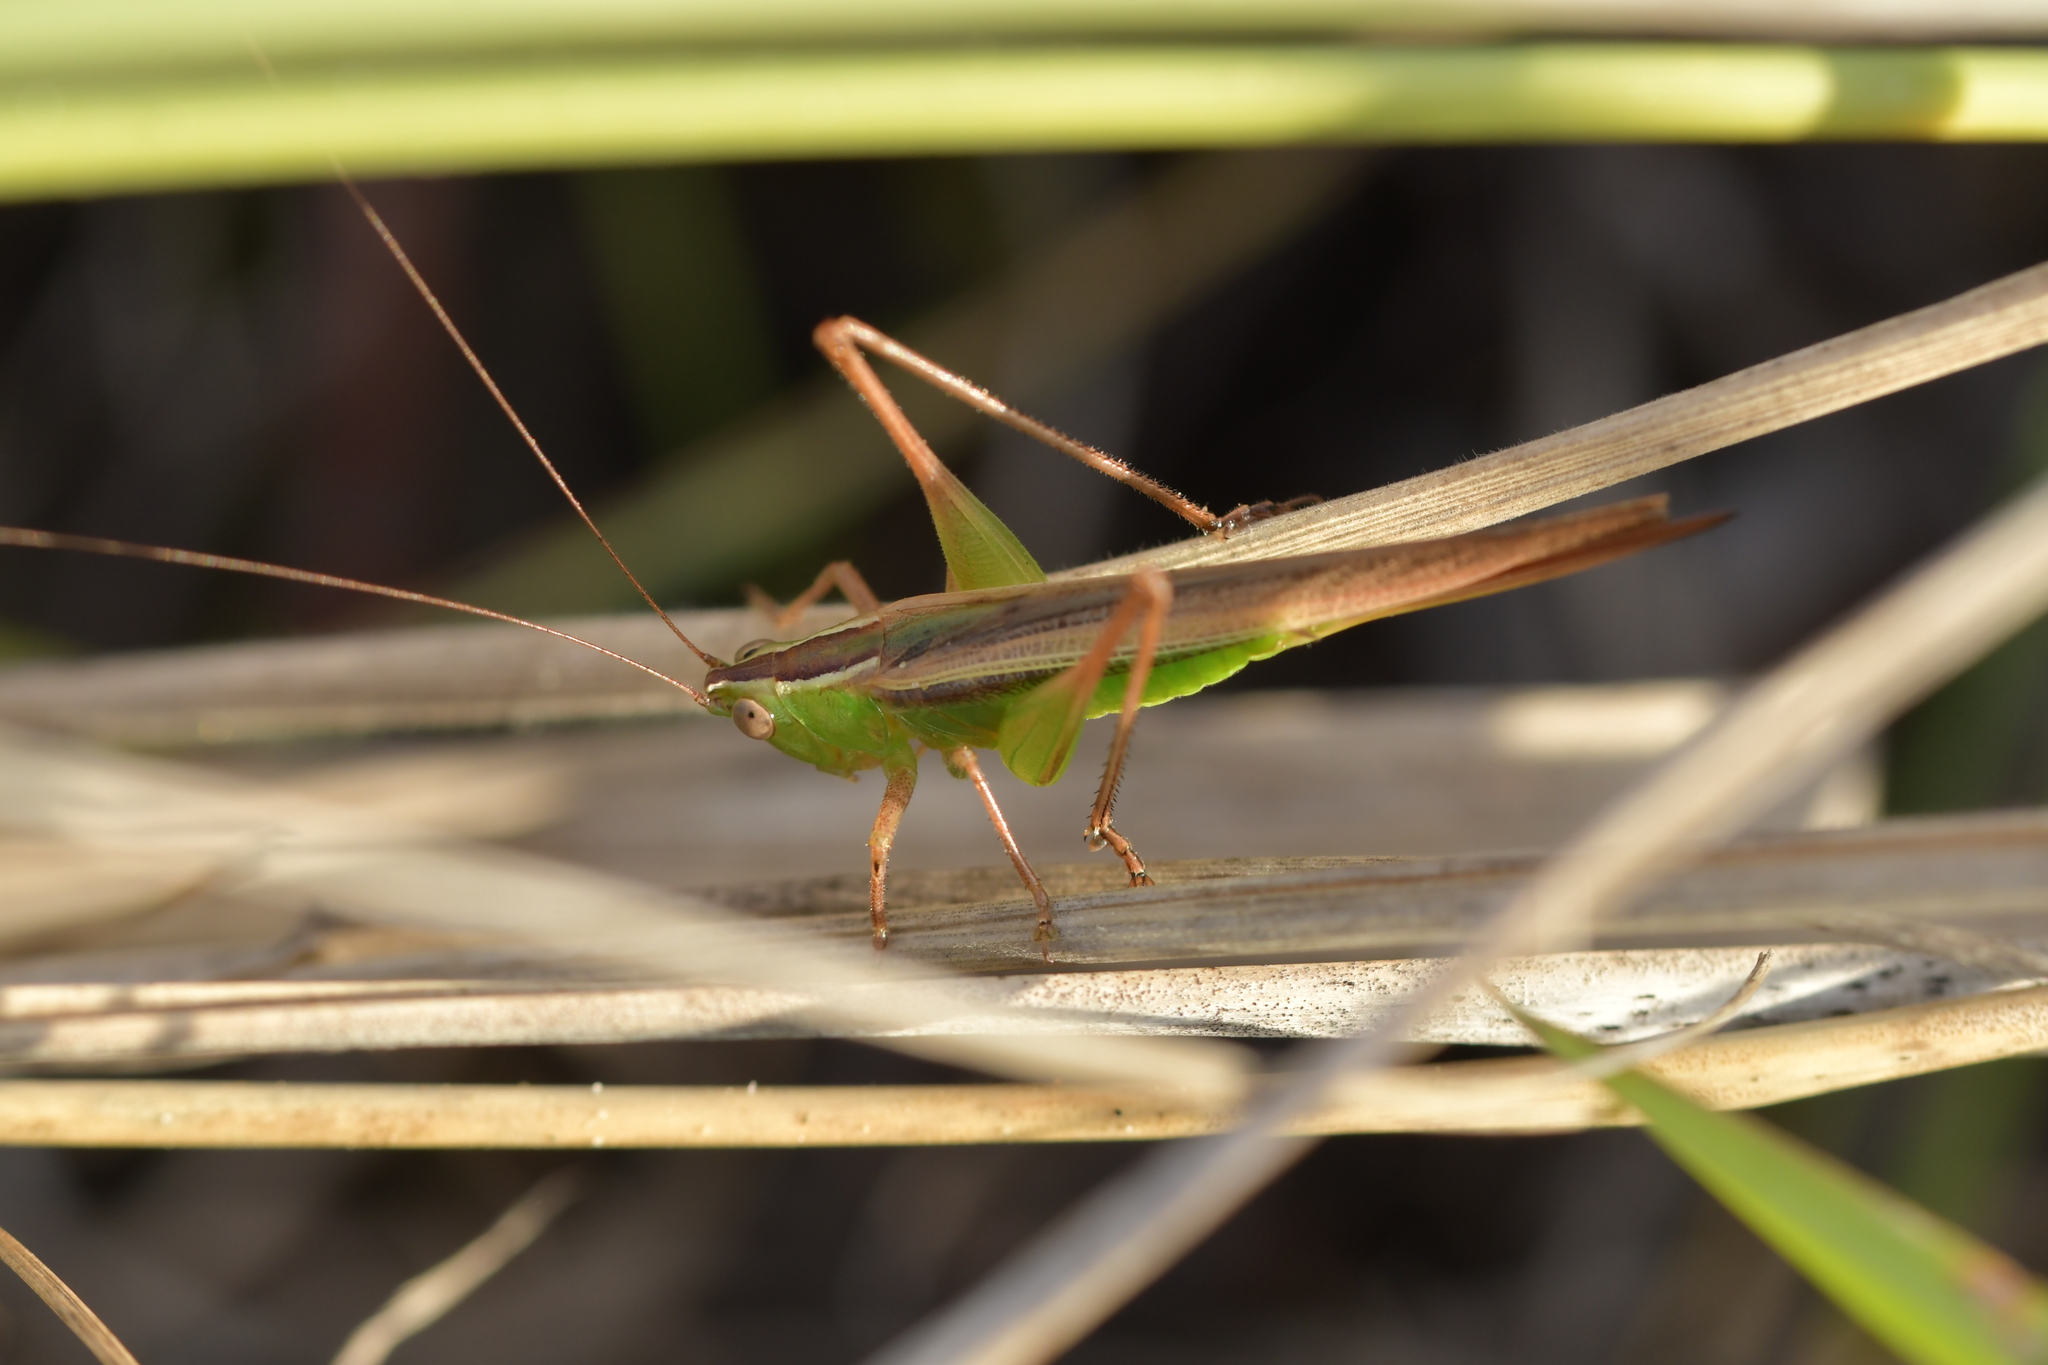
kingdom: Animalia
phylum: Arthropoda
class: Insecta
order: Orthoptera
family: Tettigoniidae
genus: Conocephalus
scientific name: Conocephalus albescens
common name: Whitish meadow katydid
